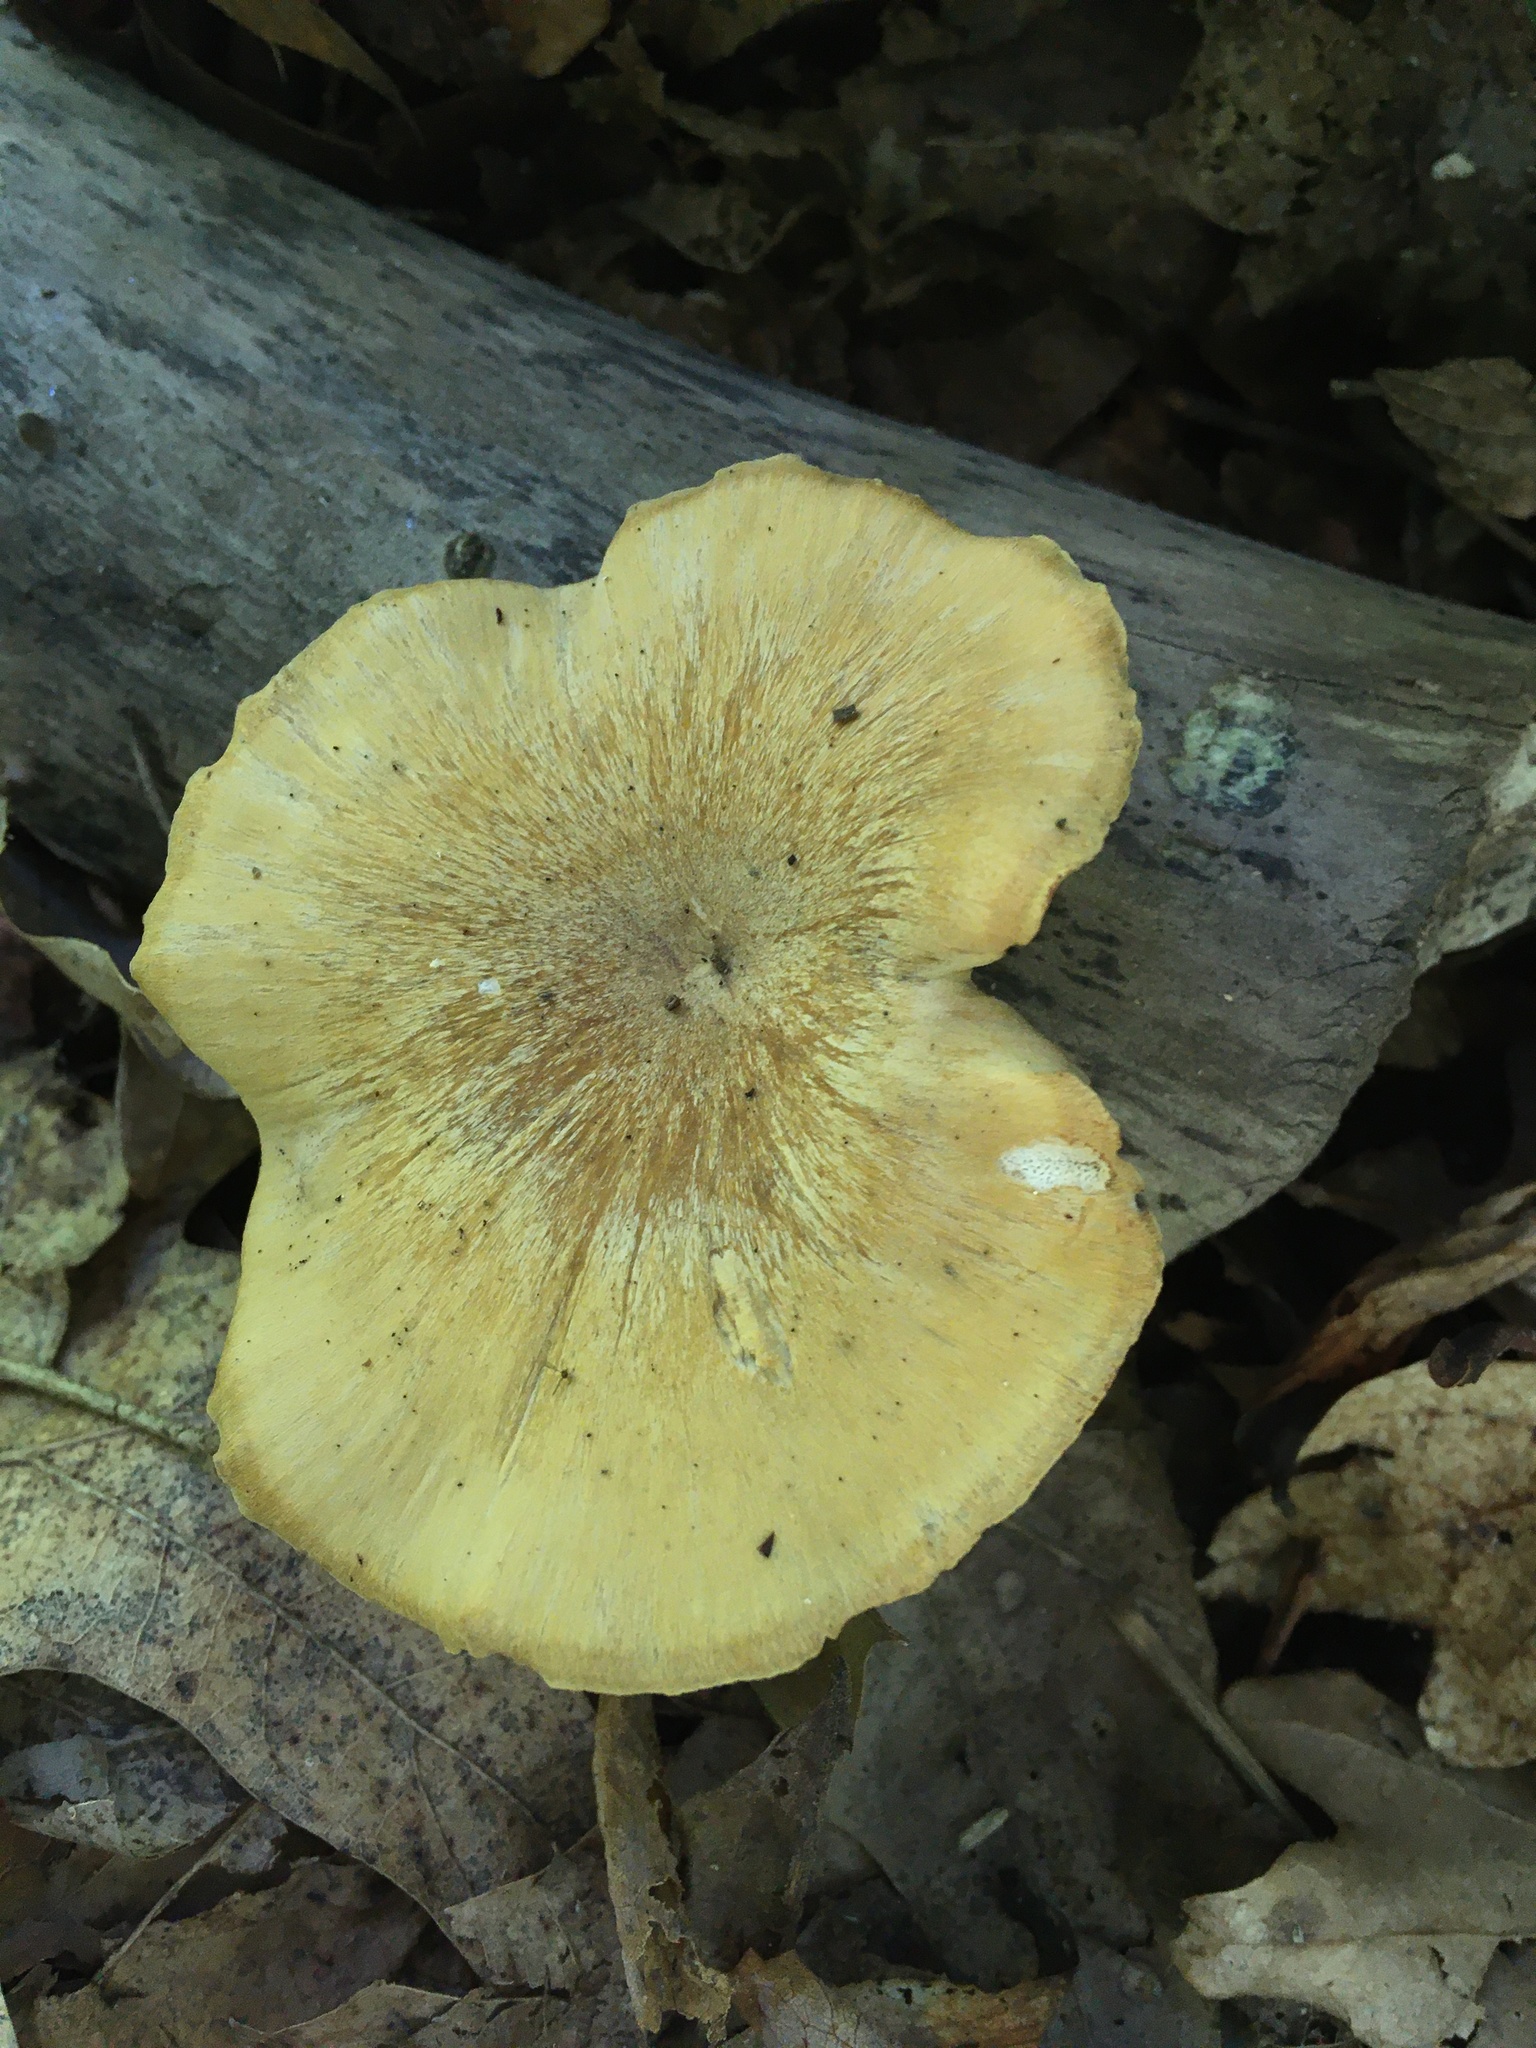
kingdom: Fungi
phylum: Basidiomycota
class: Agaricomycetes
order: Polyporales
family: Polyporaceae
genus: Cerioporus
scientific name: Cerioporus leptocephalus
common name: Blackfoot polypore
